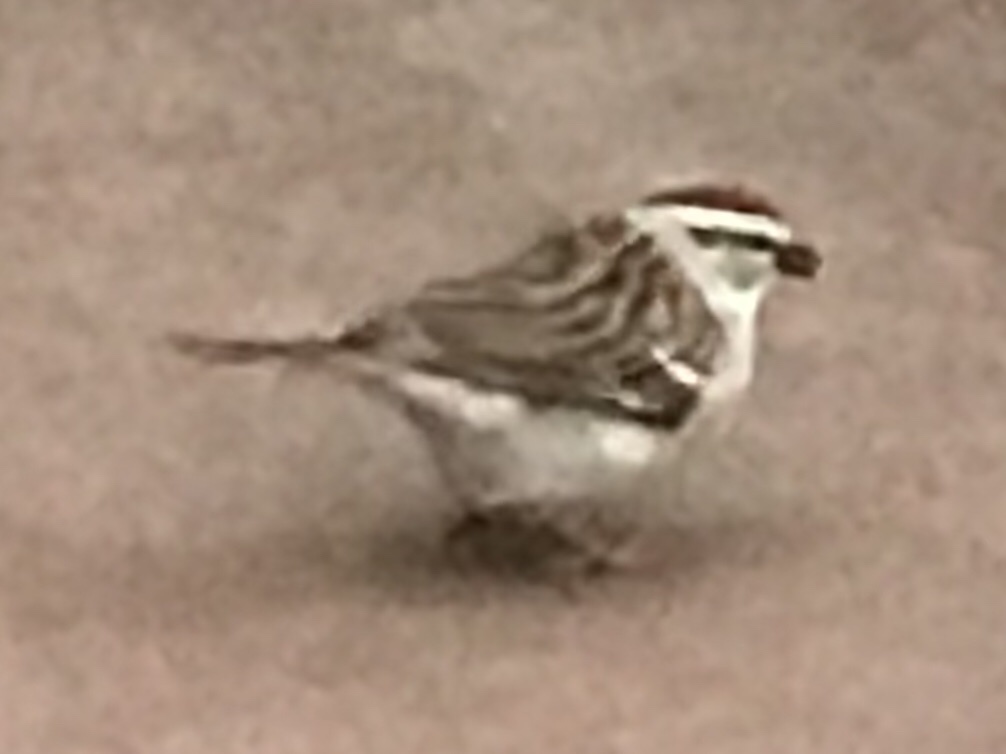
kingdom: Animalia
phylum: Chordata
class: Aves
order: Passeriformes
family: Passerellidae
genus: Spizella
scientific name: Spizella passerina
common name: Chipping sparrow
